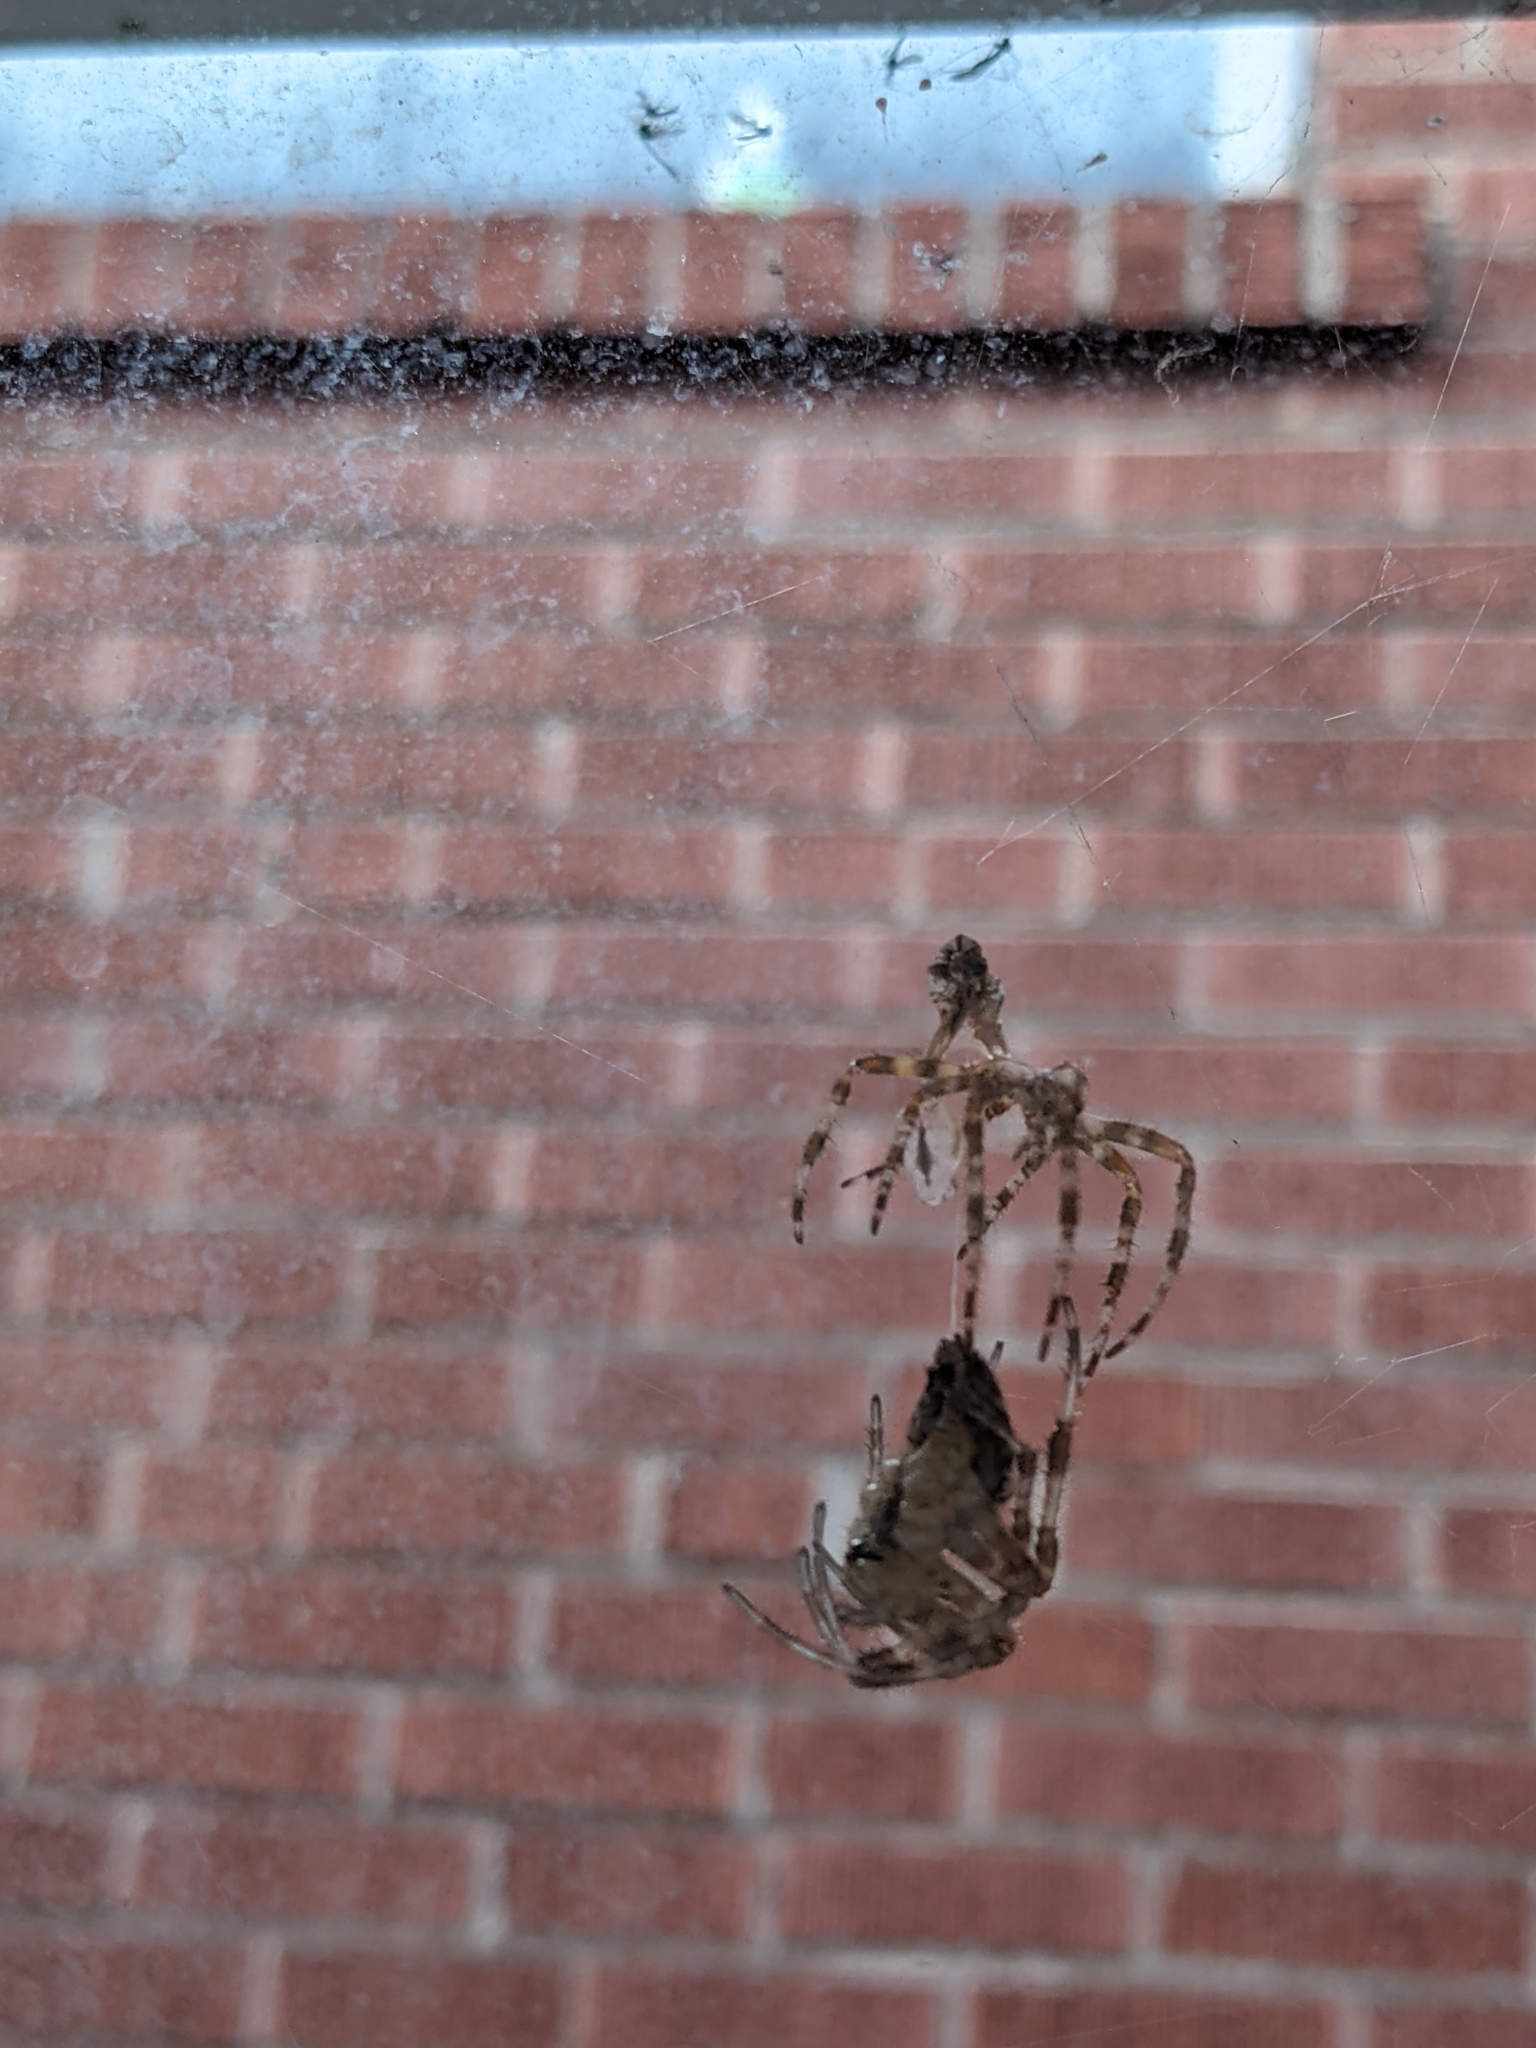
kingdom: Animalia
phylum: Arthropoda
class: Arachnida
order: Araneae
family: Araneidae
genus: Araneus
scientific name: Araneus diadematus
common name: Cross orbweaver
